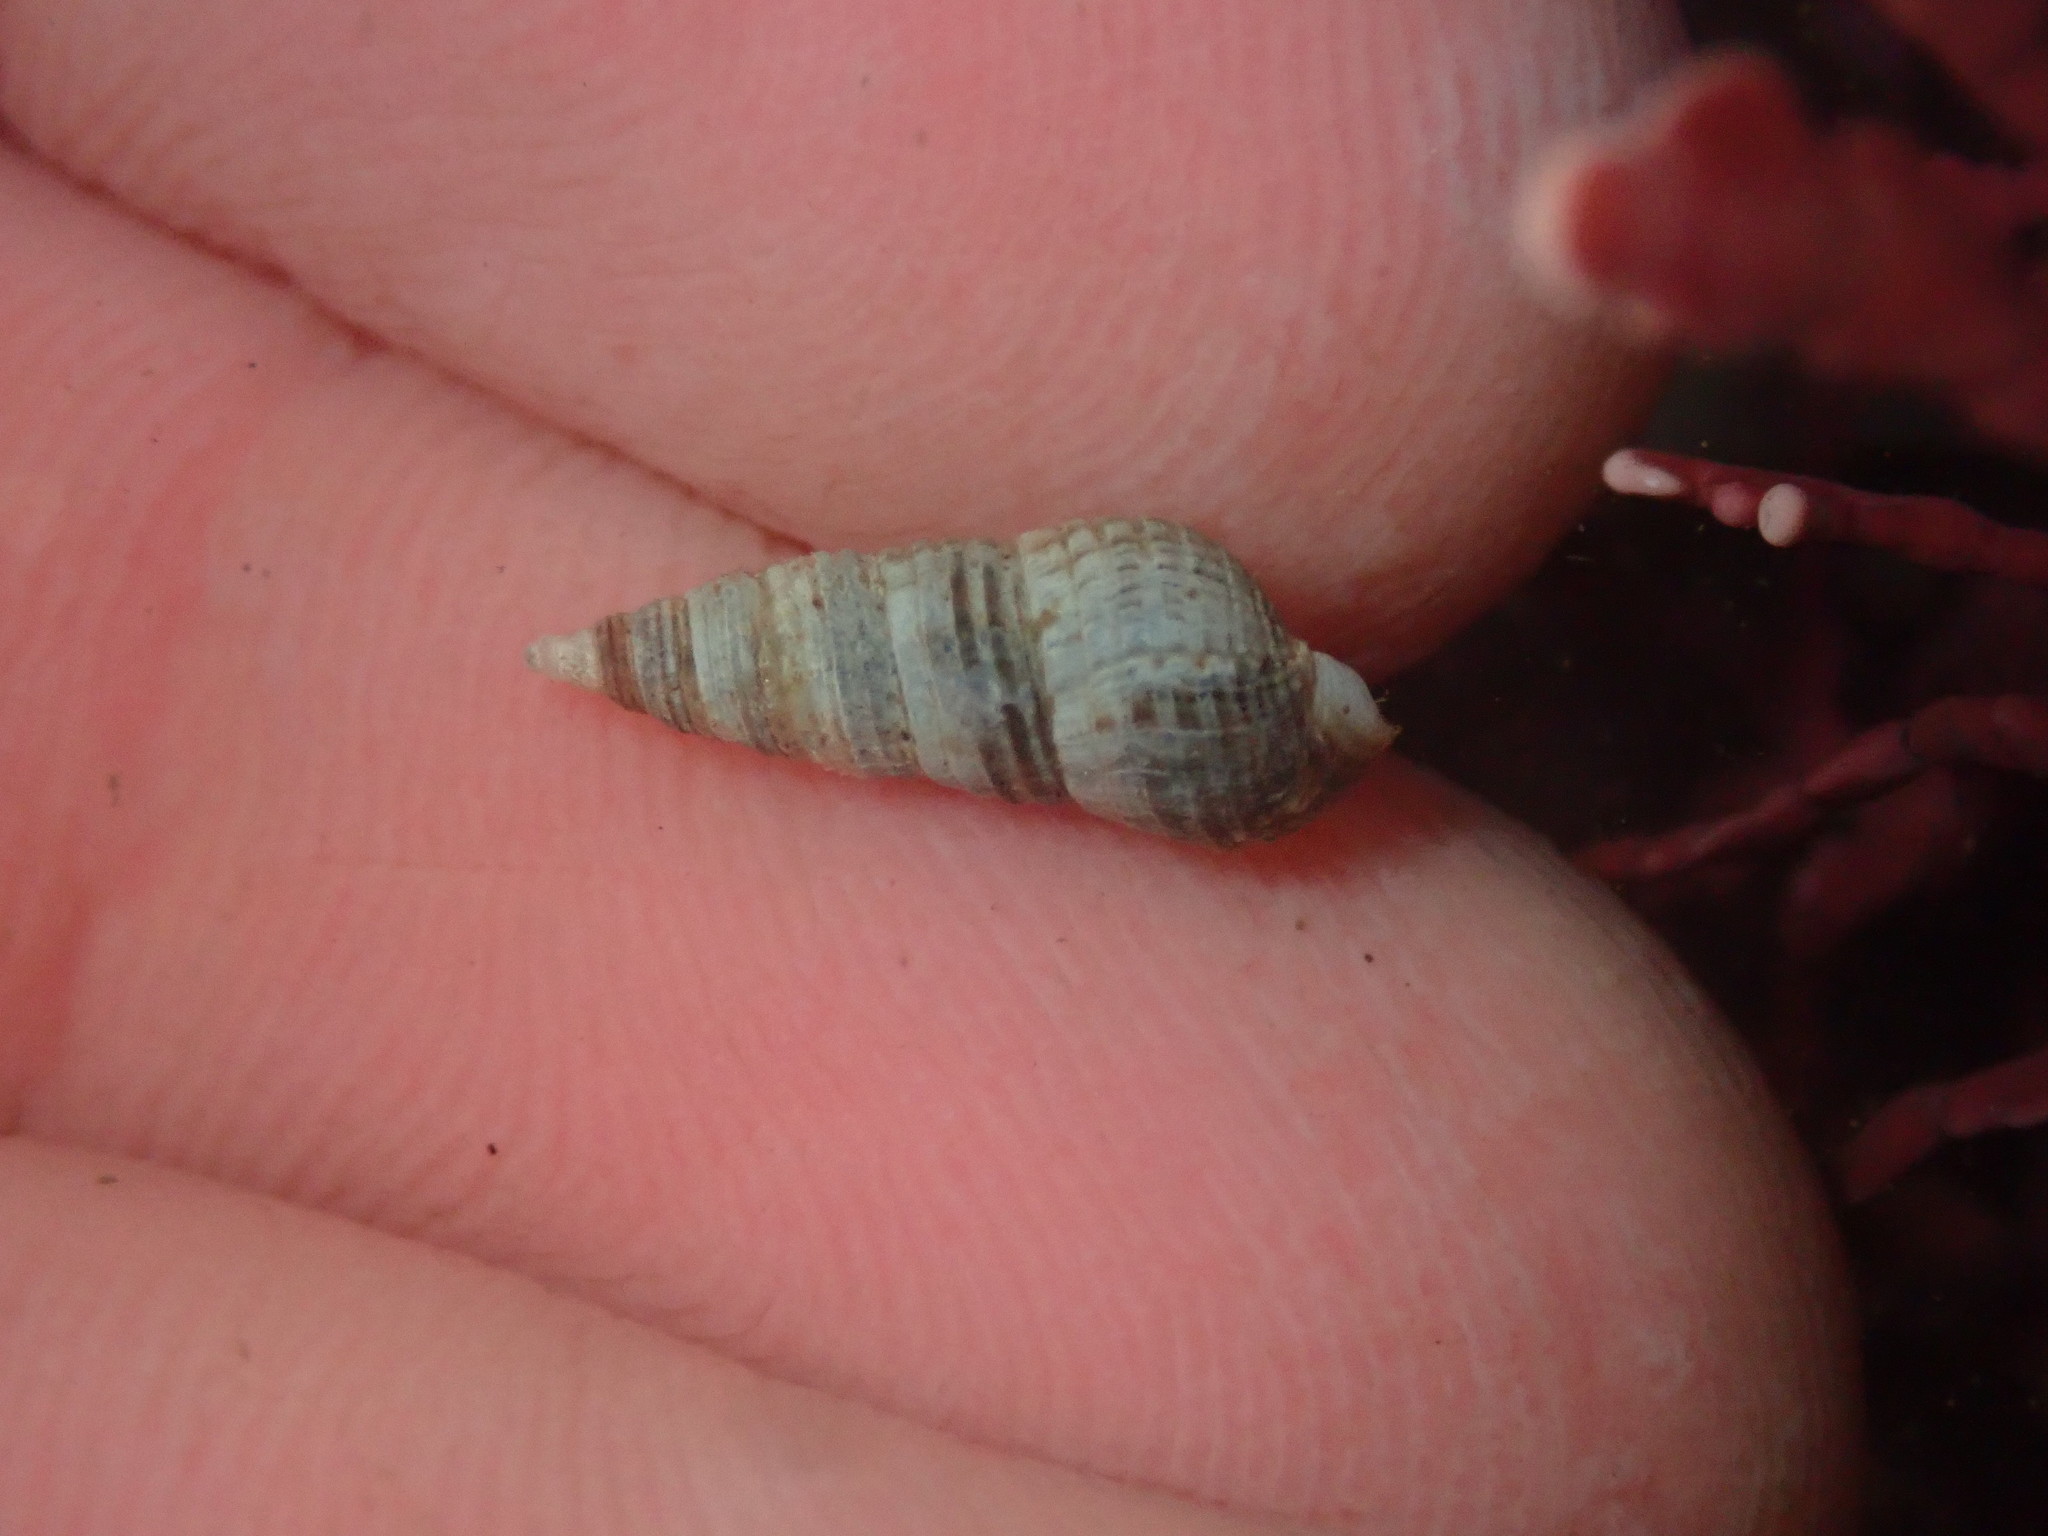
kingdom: Animalia
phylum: Mollusca
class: Gastropoda
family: Cerithiidae
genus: Neostylidium
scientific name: Neostylidium eschrichtii
